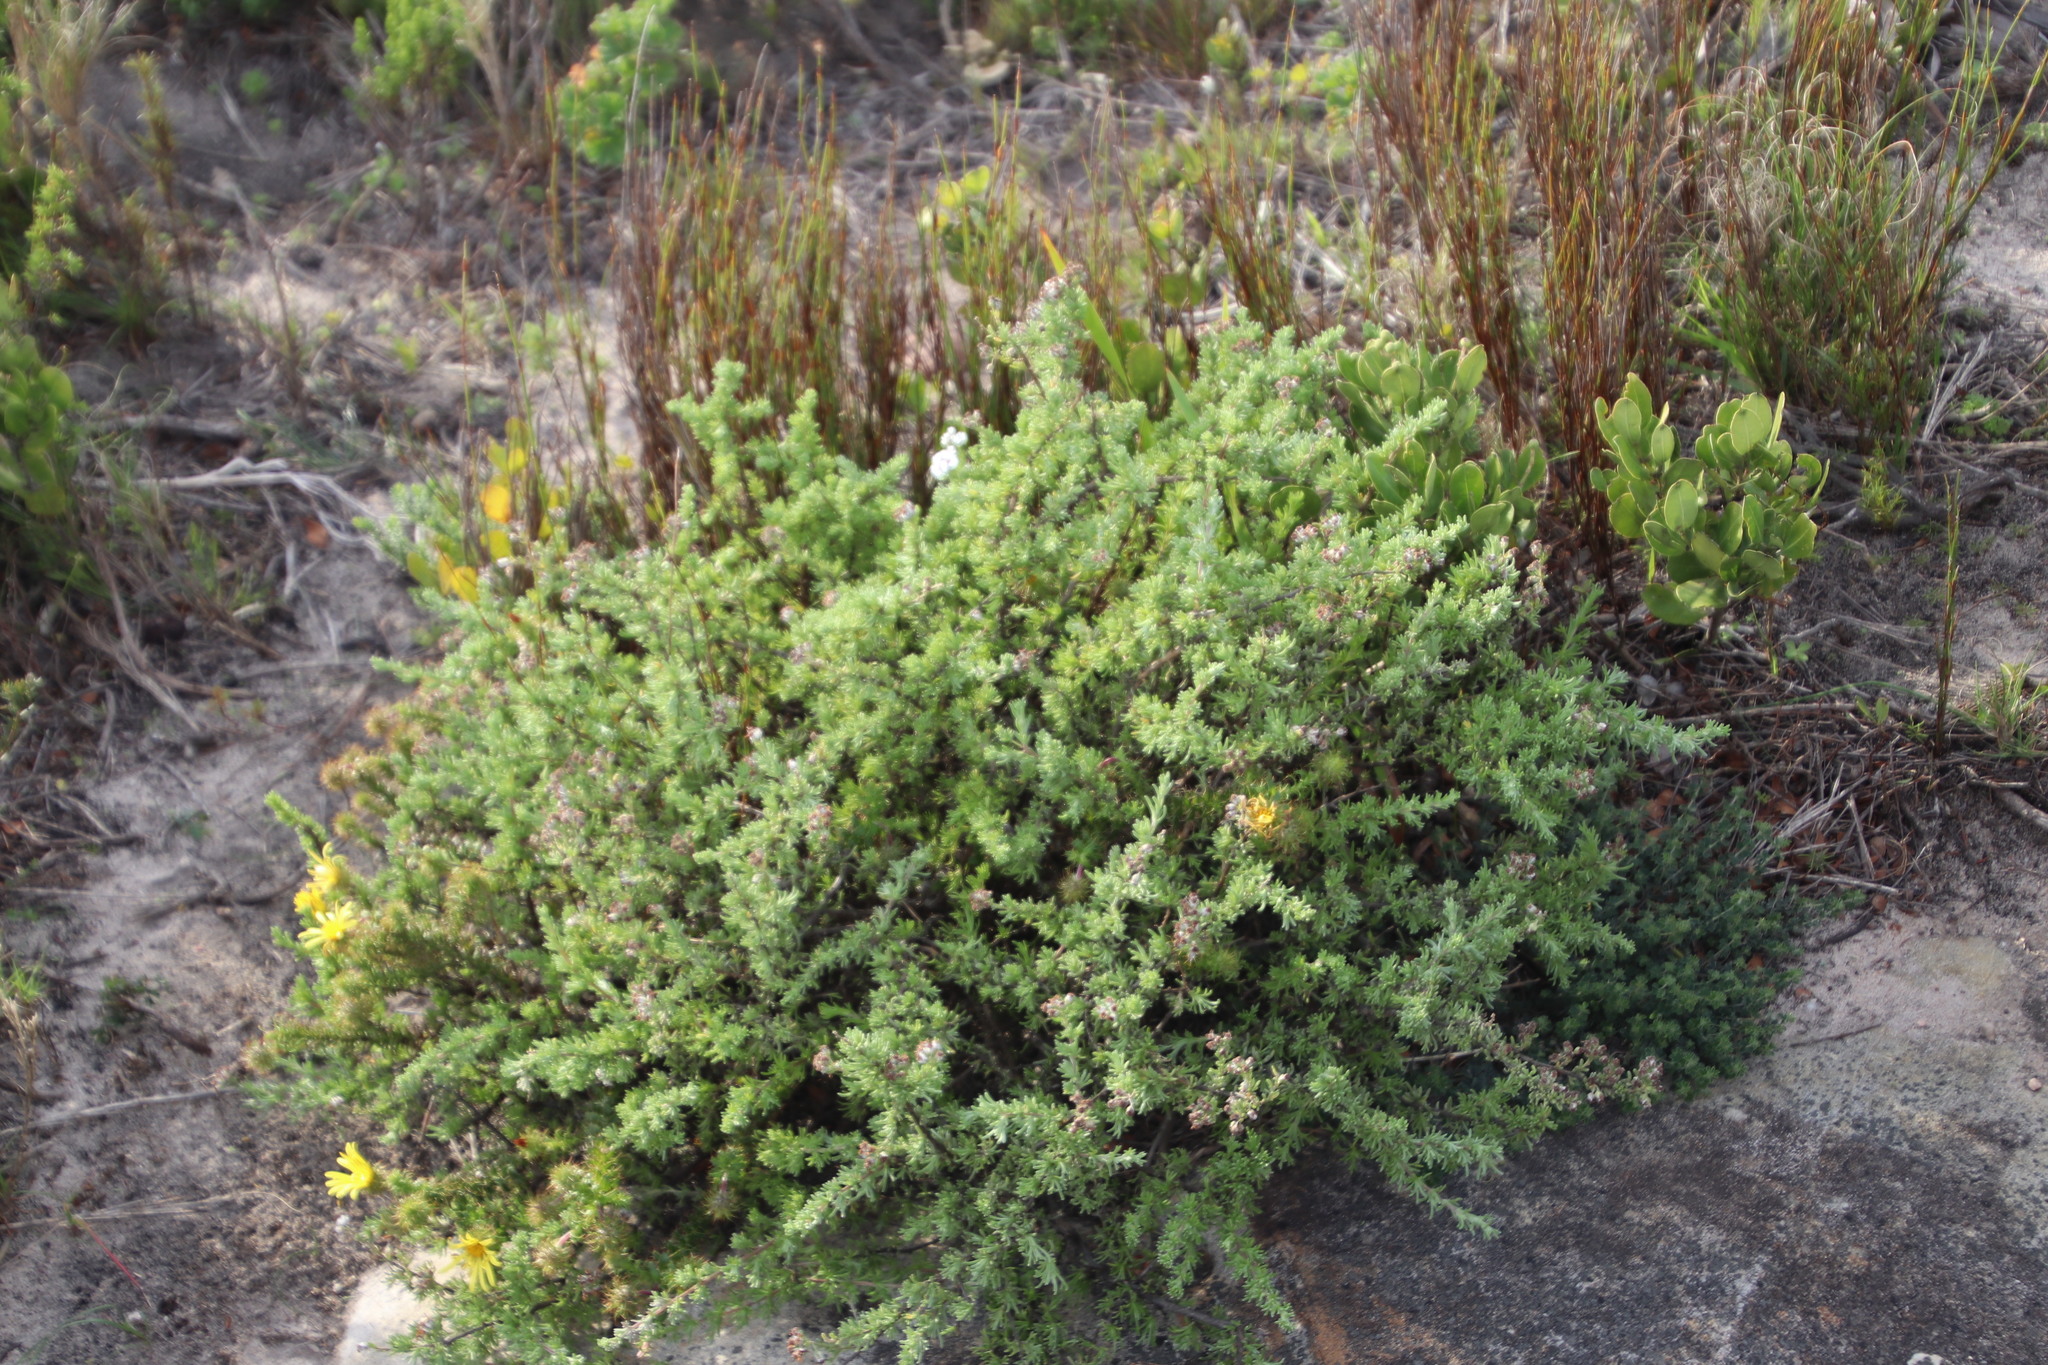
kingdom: Plantae
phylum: Tracheophyta
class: Magnoliopsida
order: Asterales
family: Asteraceae
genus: Eriocephalus
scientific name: Eriocephalus africanus
